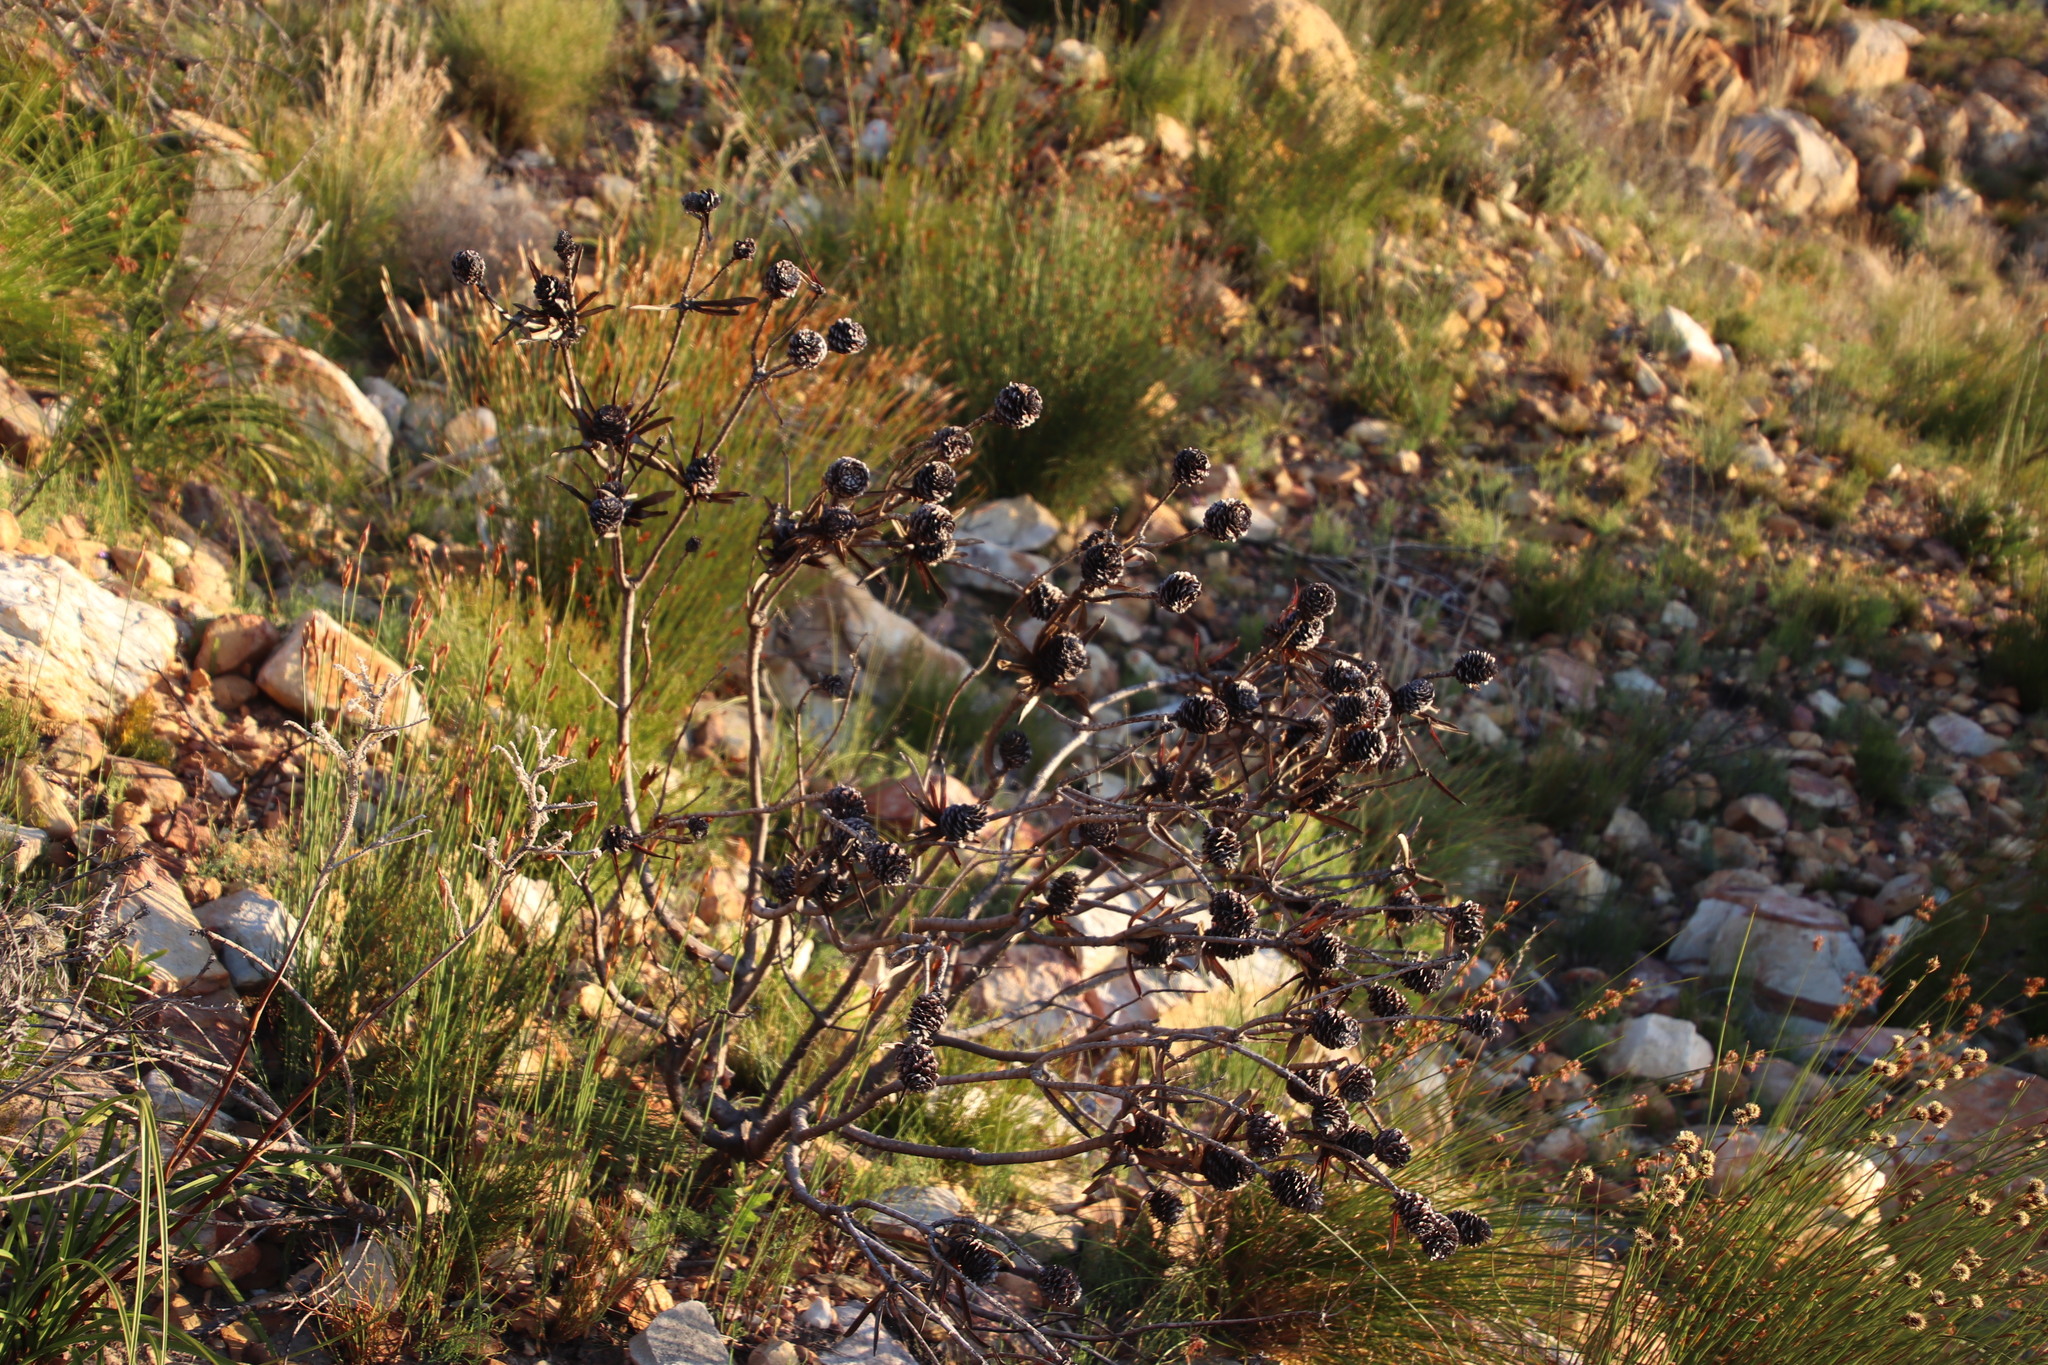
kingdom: Plantae
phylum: Tracheophyta
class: Magnoliopsida
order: Proteales
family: Proteaceae
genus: Leucadendron
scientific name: Leucadendron laureolum
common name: Golden sunshinebush
